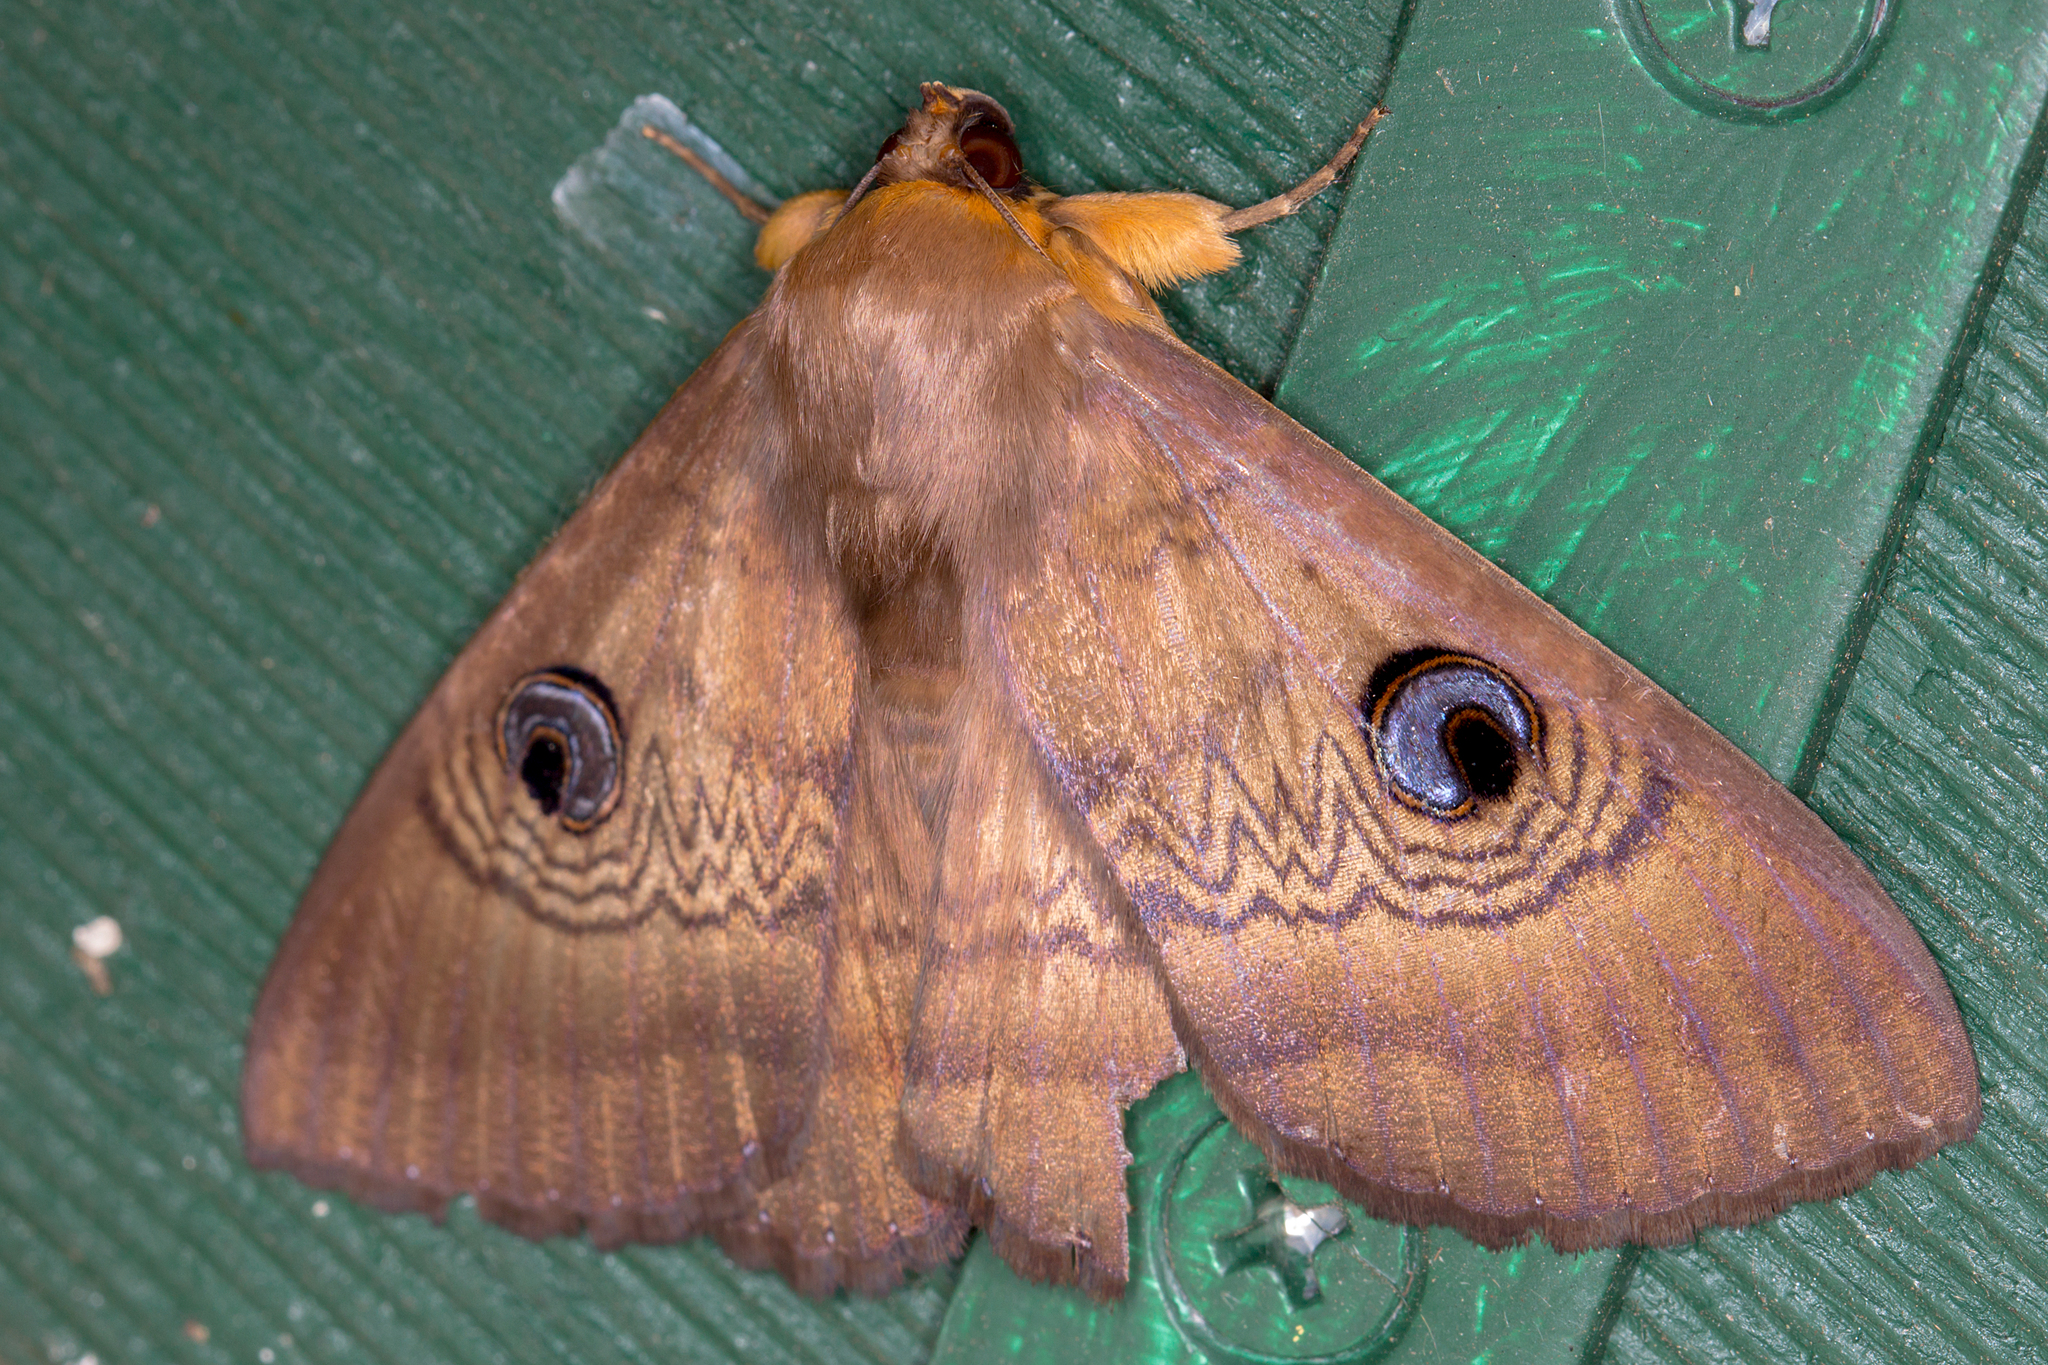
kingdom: Animalia
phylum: Arthropoda
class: Insecta
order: Lepidoptera
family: Erebidae
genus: Dasypodia
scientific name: Dasypodia selenophora
